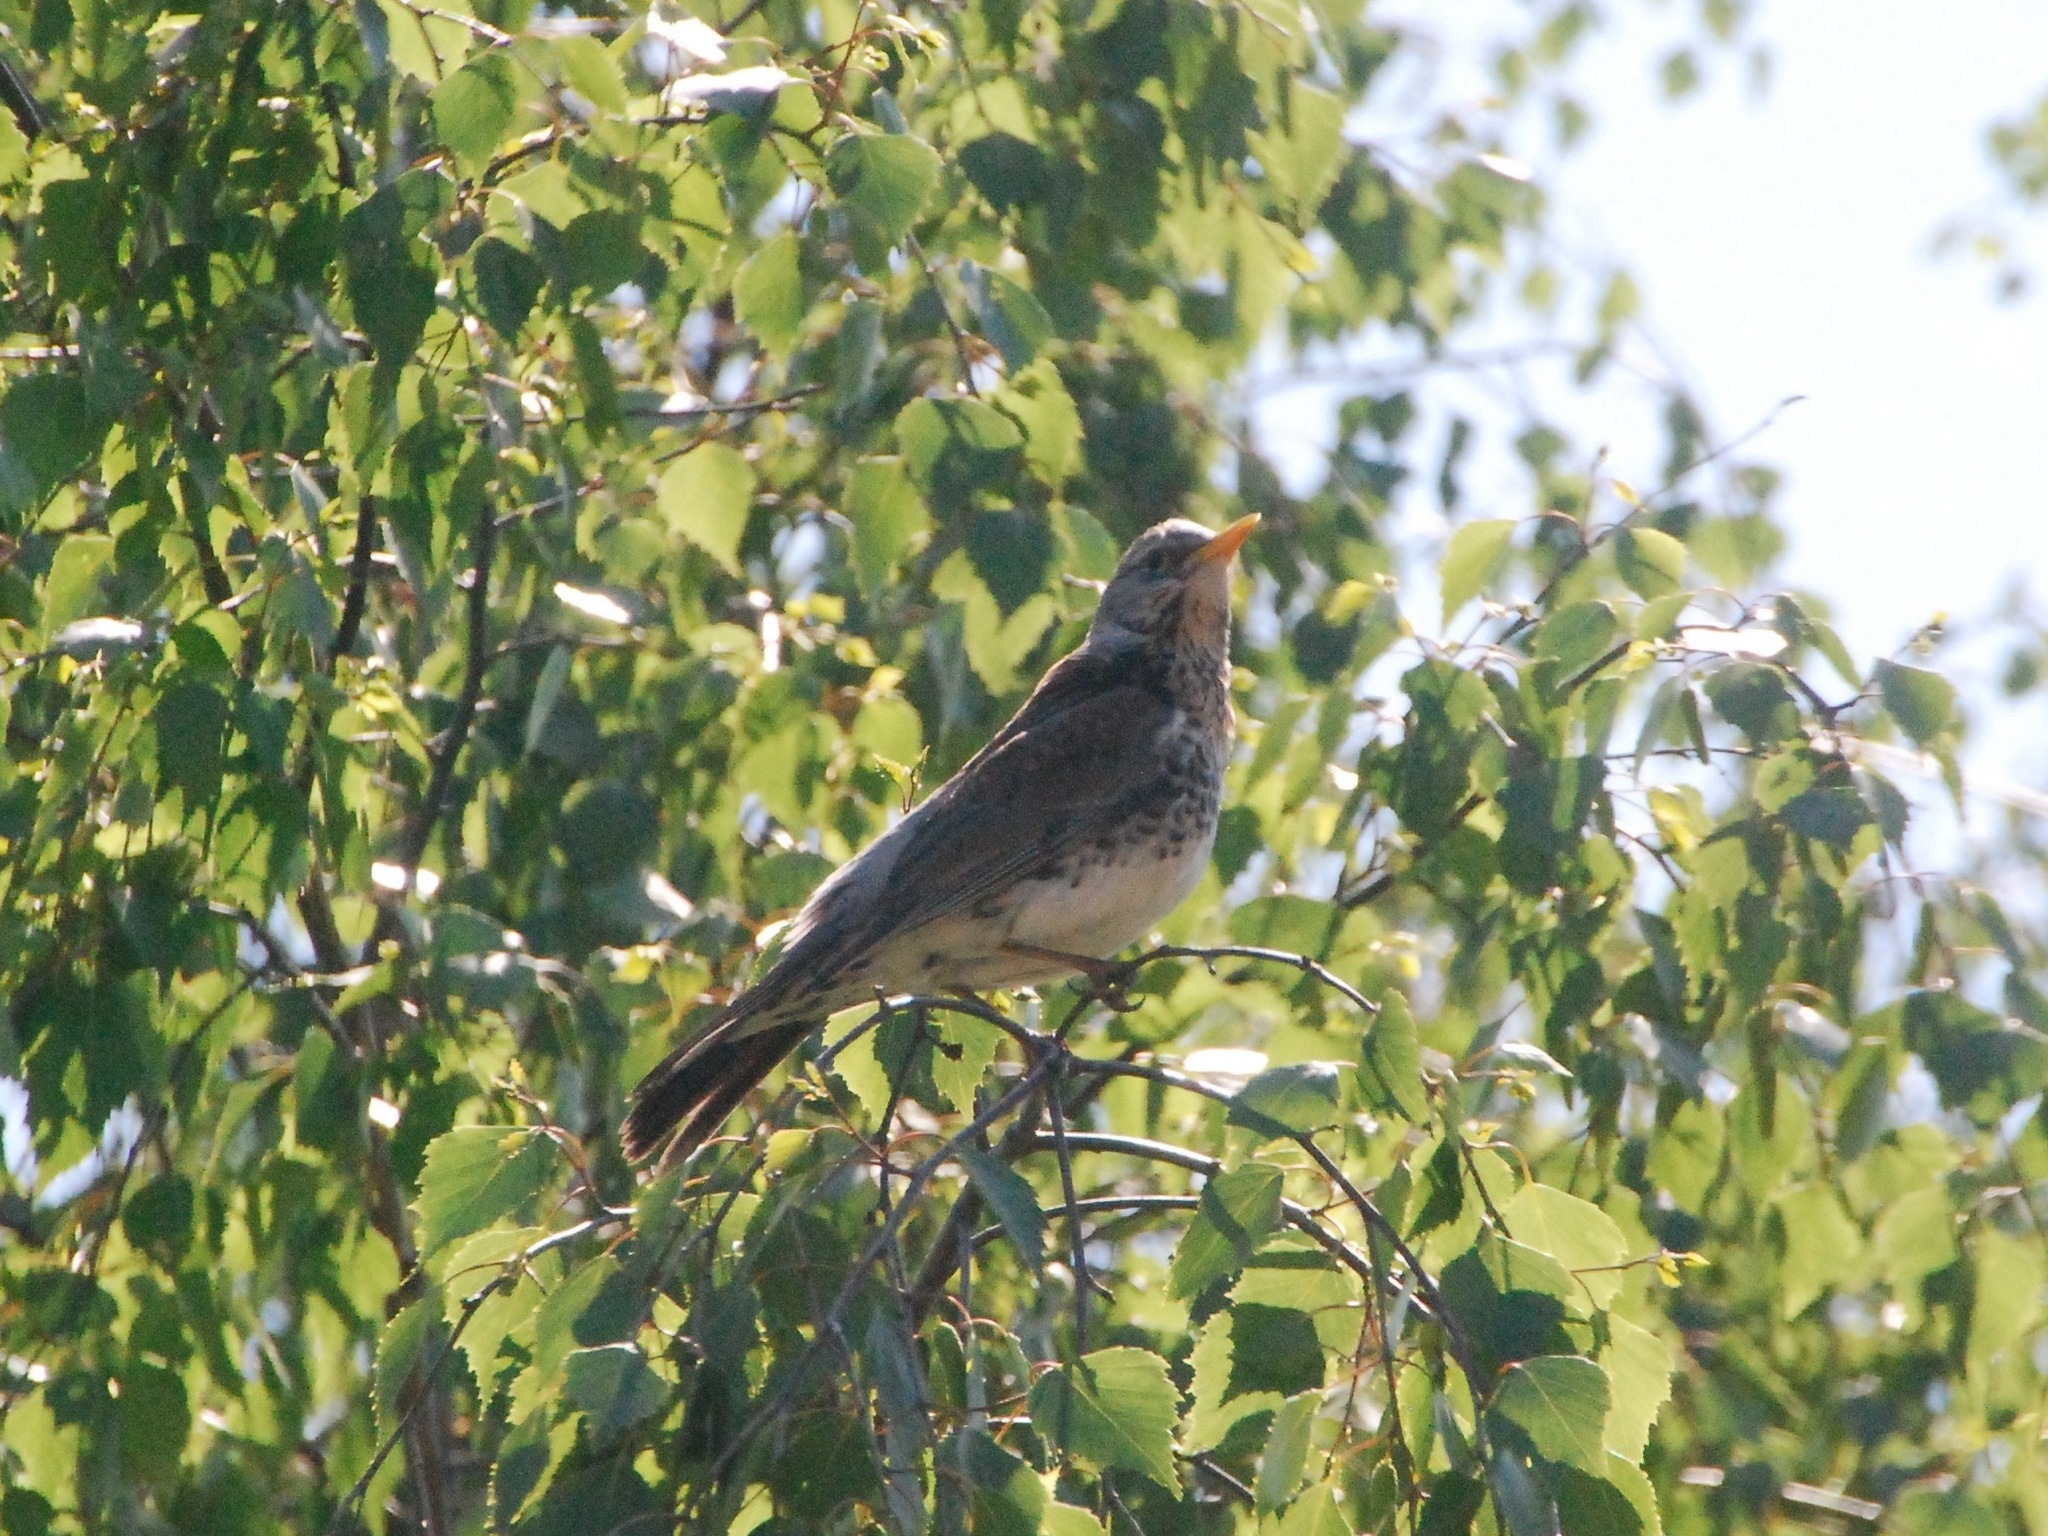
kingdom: Animalia
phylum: Chordata
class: Aves
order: Passeriformes
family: Turdidae
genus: Turdus
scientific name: Turdus pilaris
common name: Fieldfare
